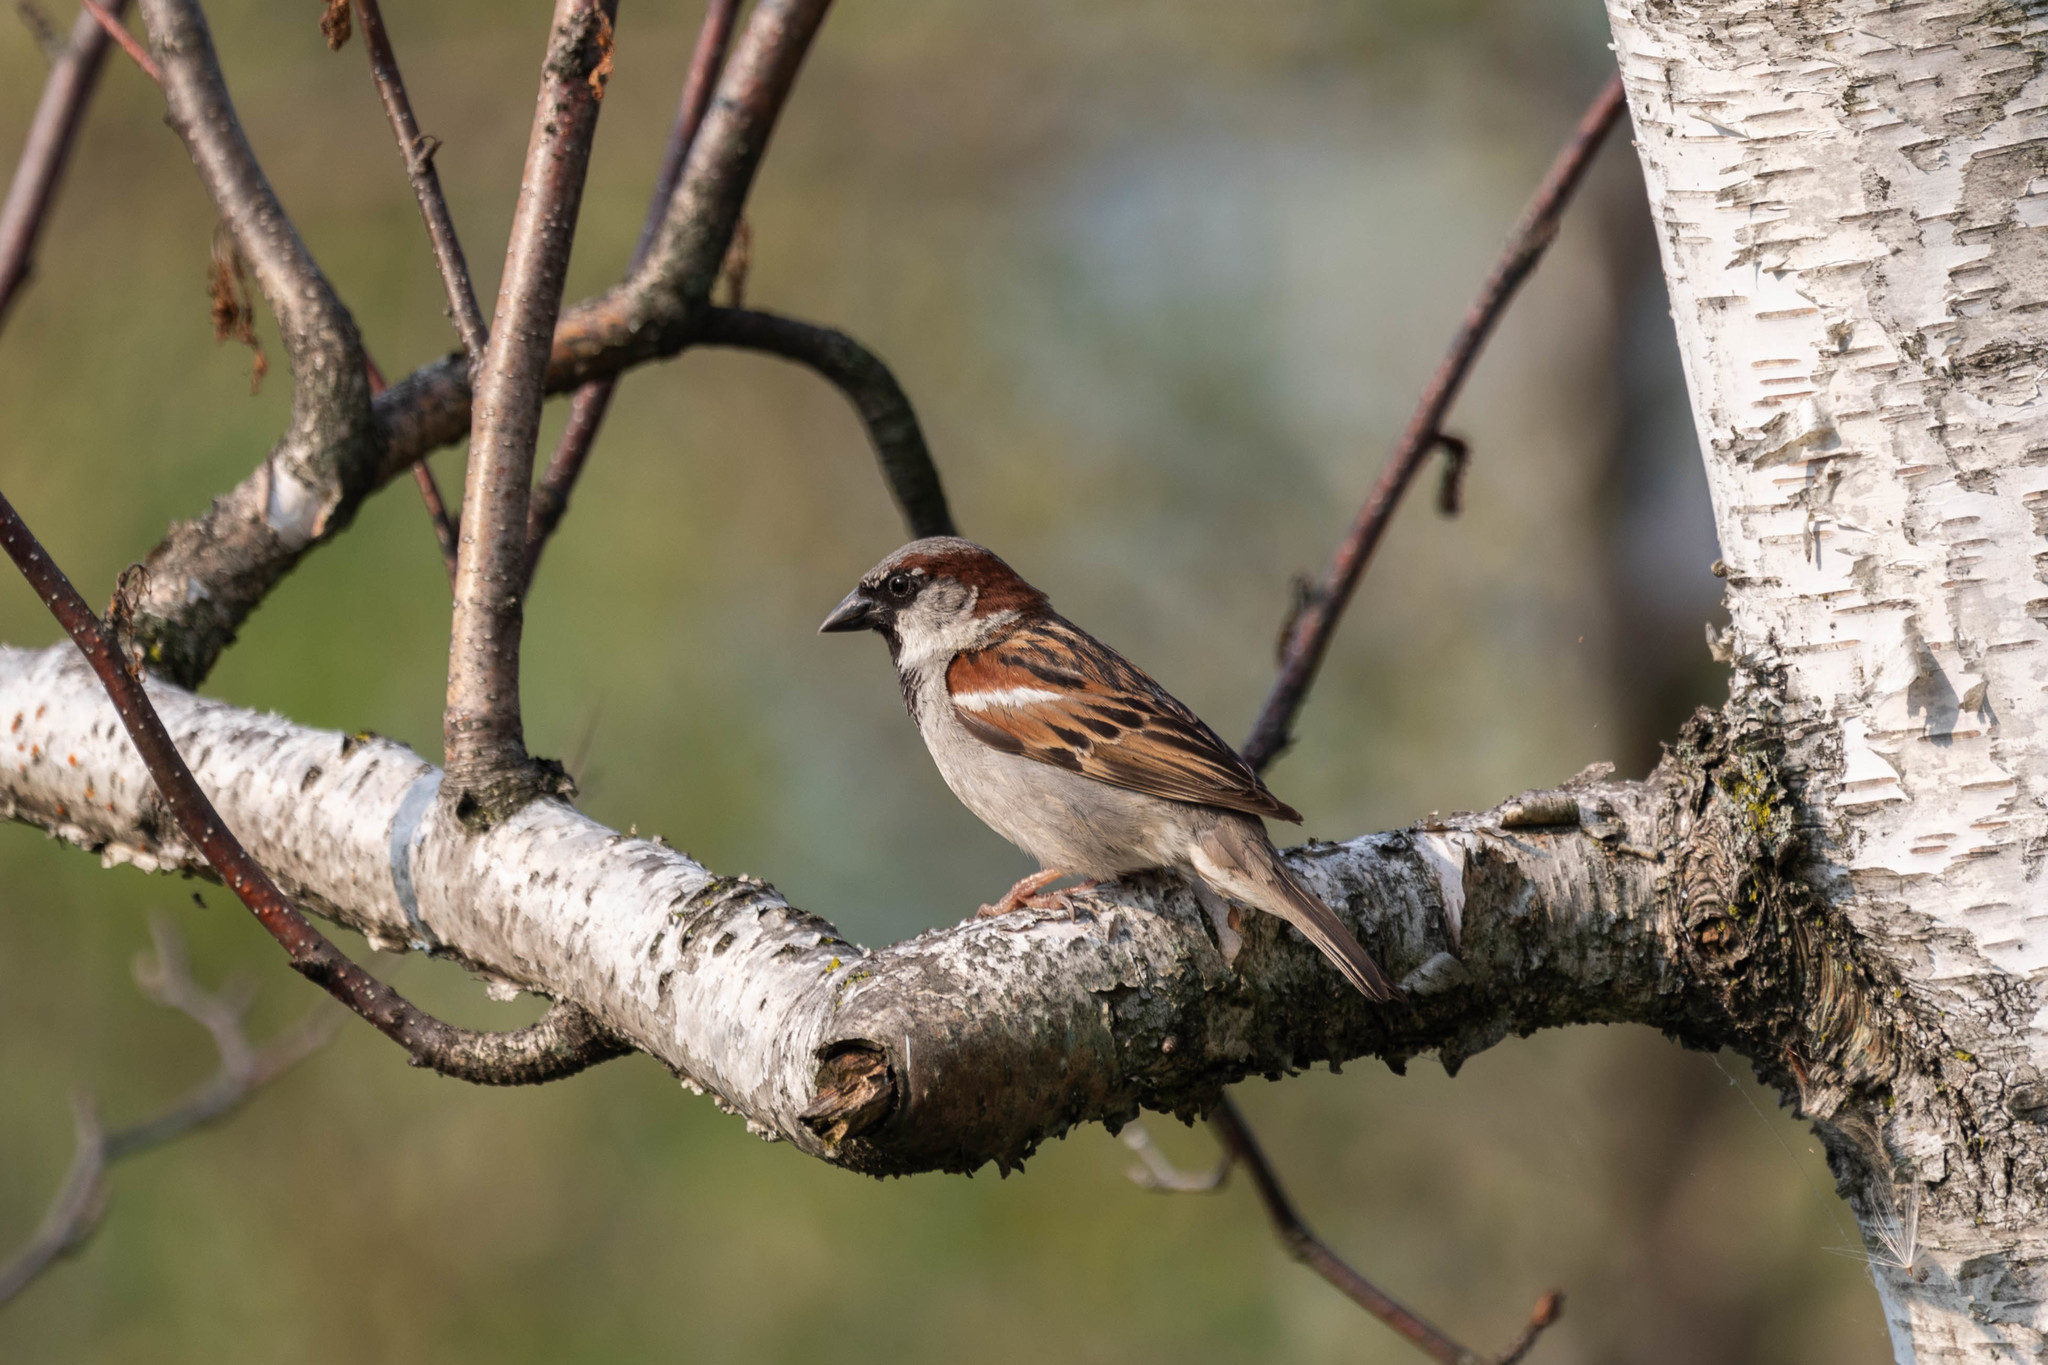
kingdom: Animalia
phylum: Chordata
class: Aves
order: Passeriformes
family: Passeridae
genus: Passer
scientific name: Passer domesticus
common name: House sparrow
